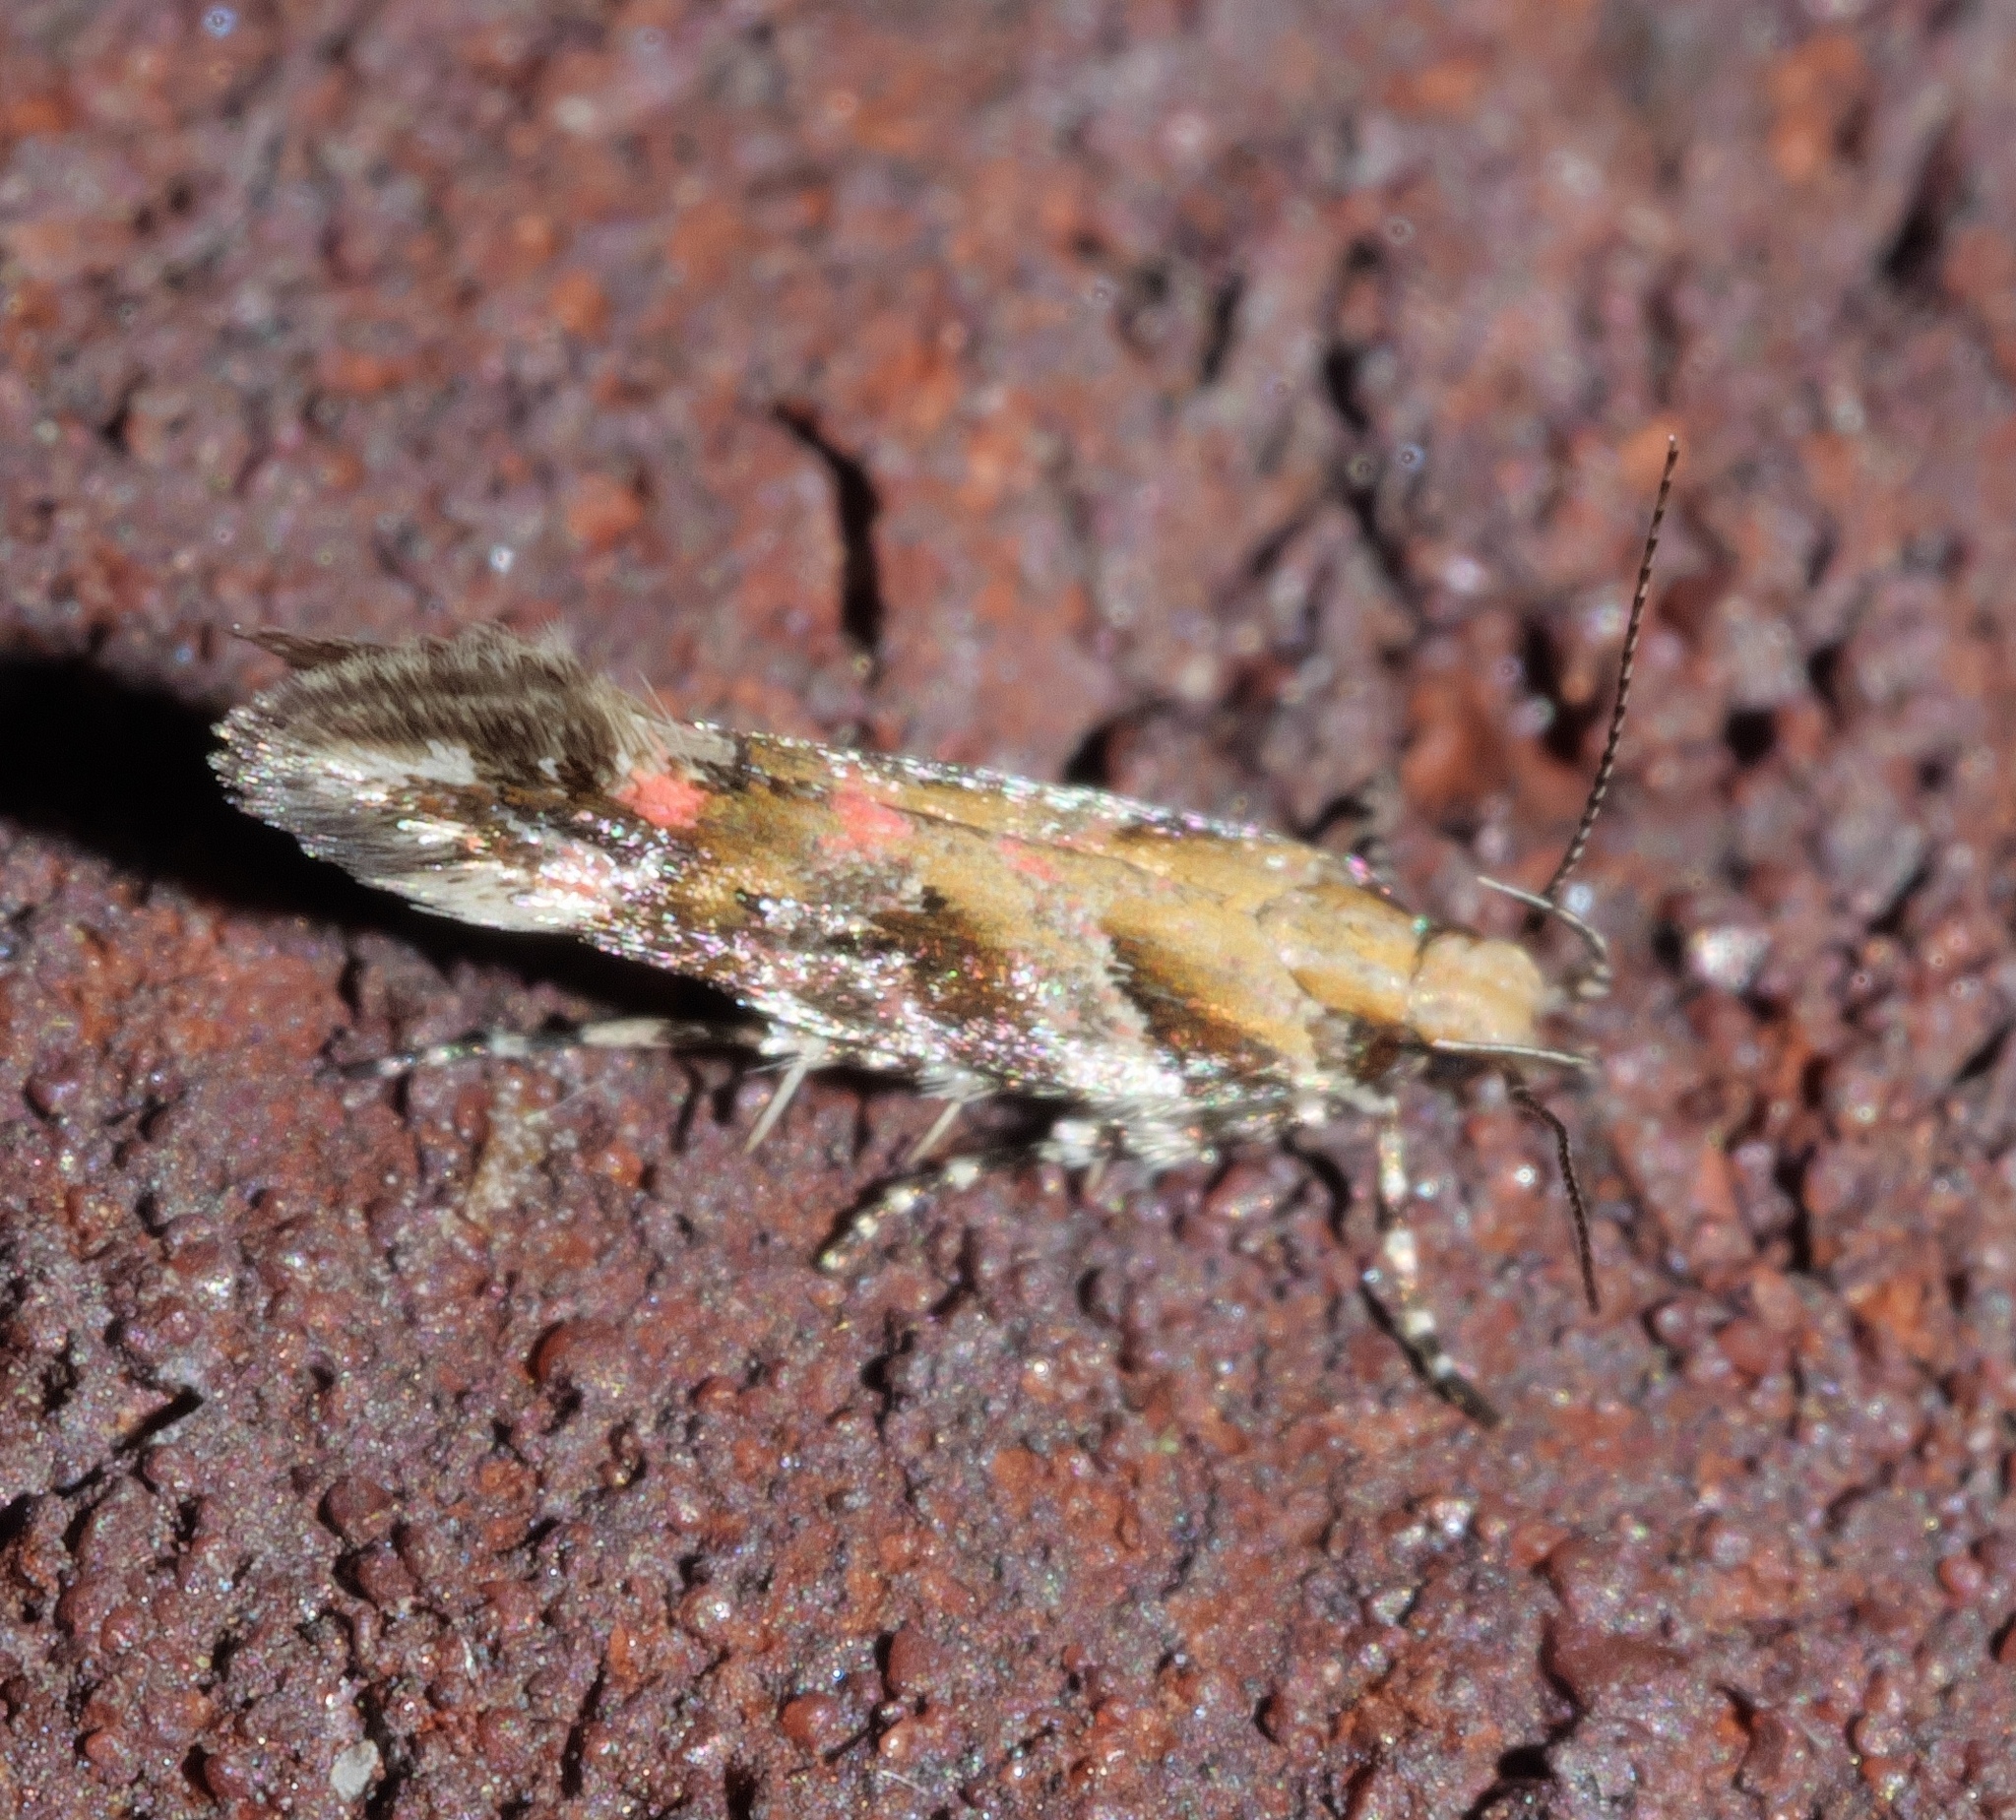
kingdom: Animalia
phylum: Arthropoda
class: Insecta
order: Lepidoptera
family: Gelechiidae
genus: Aristotelia
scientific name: Aristotelia roseosuffusella
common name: Pink-washed aristotelia moth
